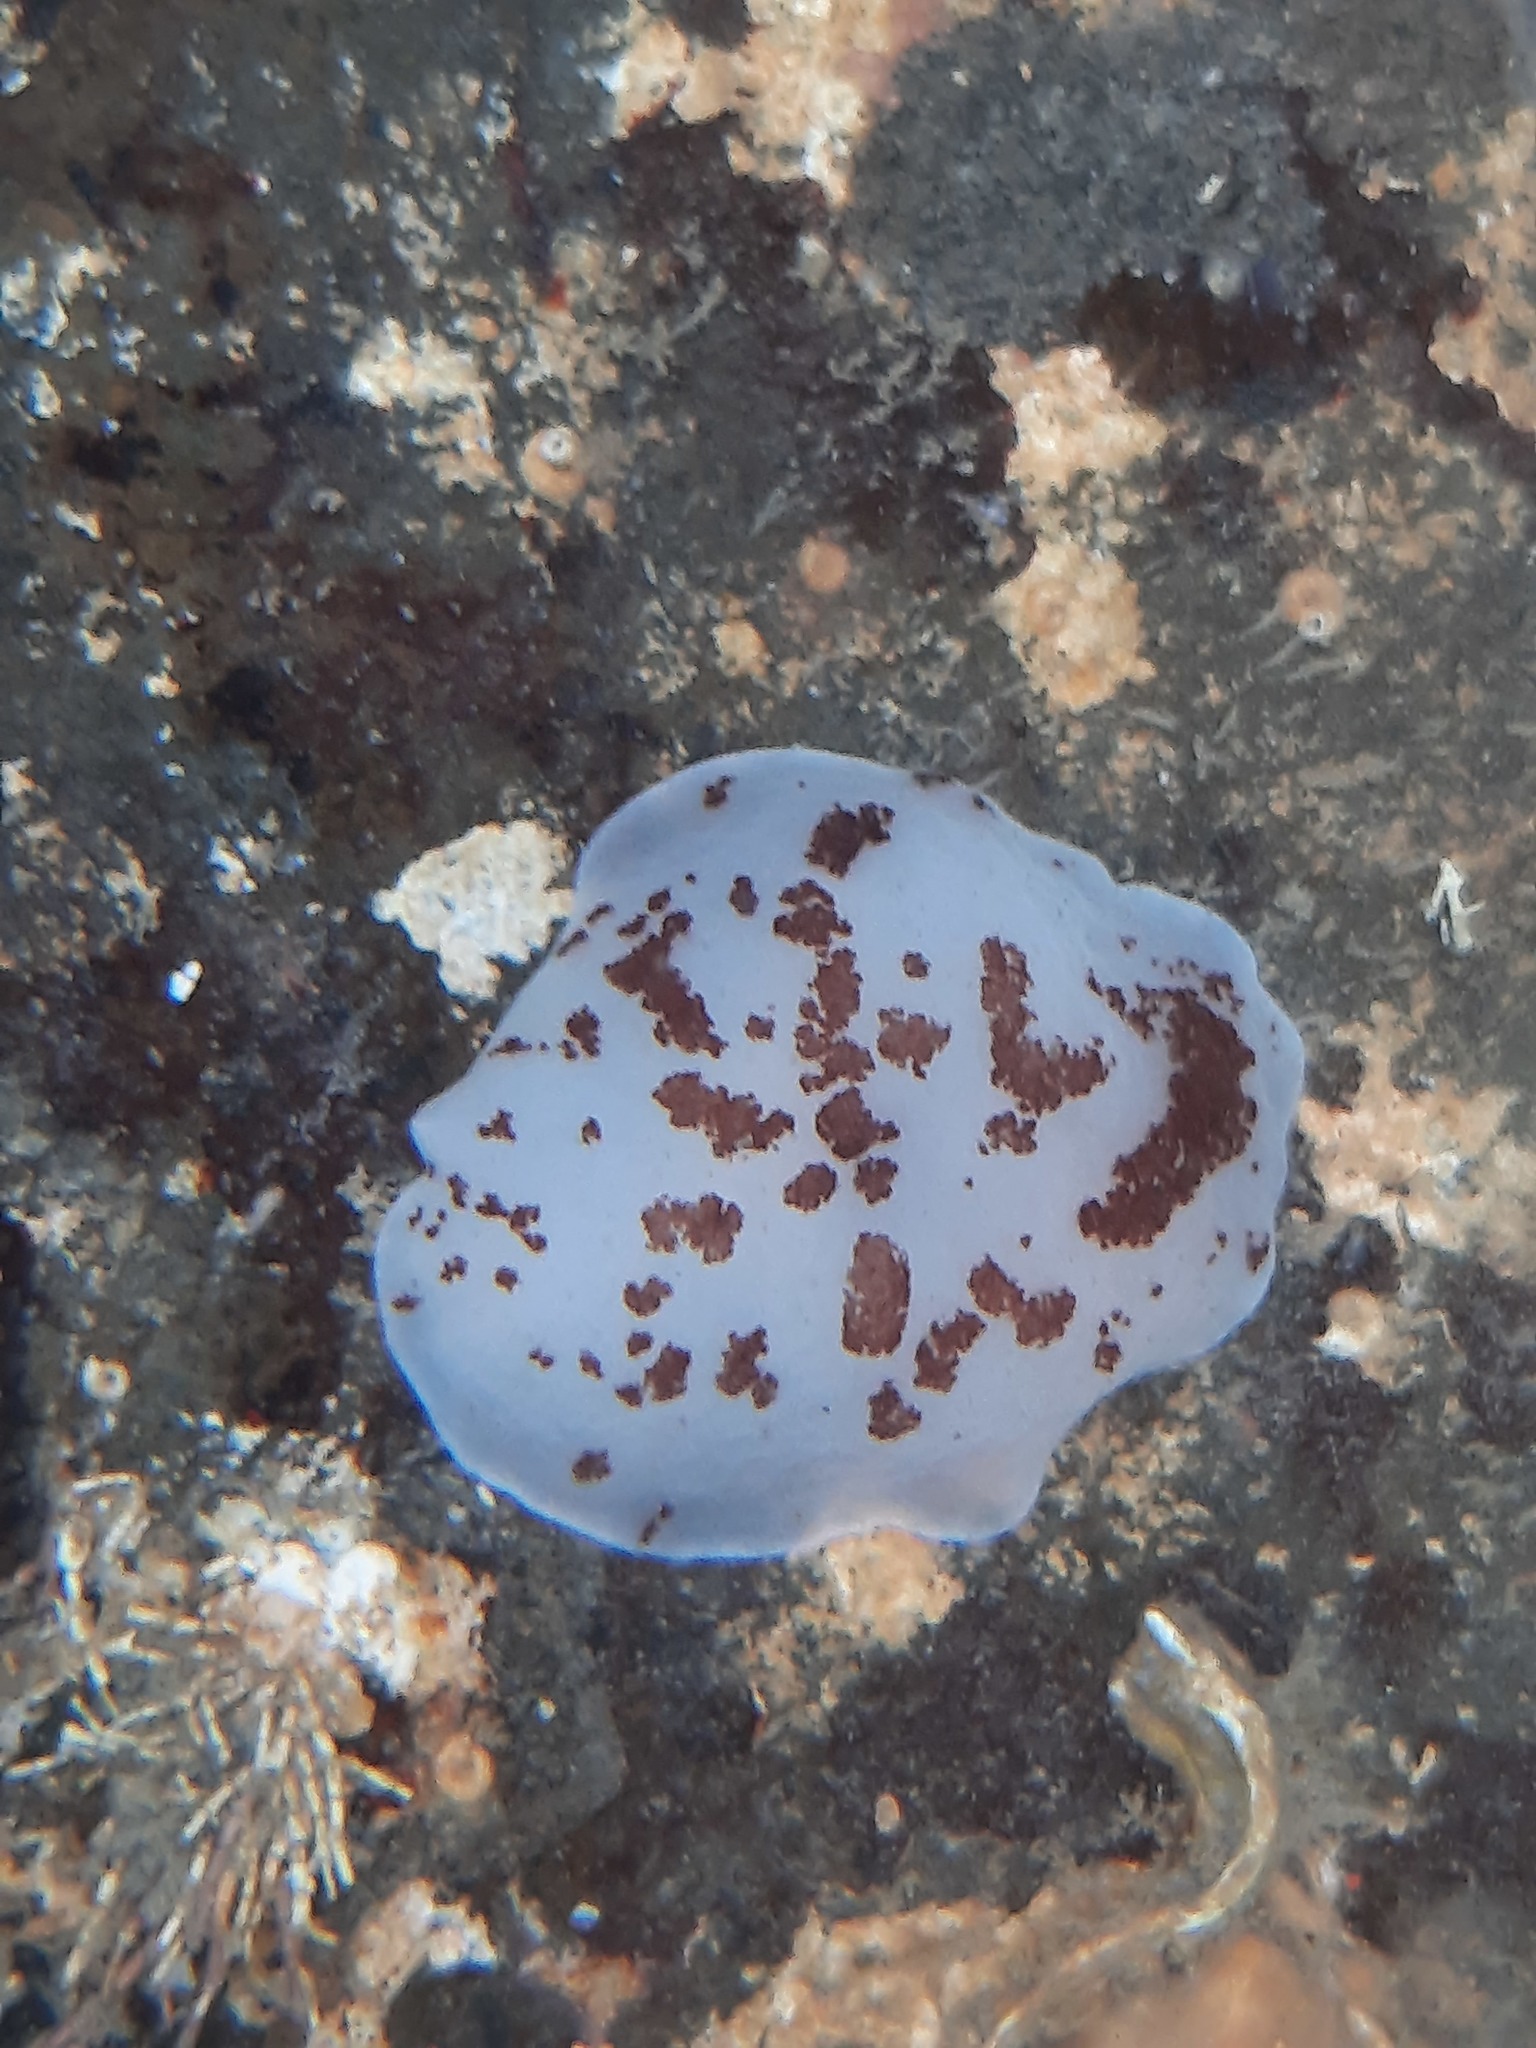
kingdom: Animalia
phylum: Mollusca
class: Gastropoda
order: Pleurobranchida
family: Pleurobranchidae
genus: Berthella
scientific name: Berthella ornata
